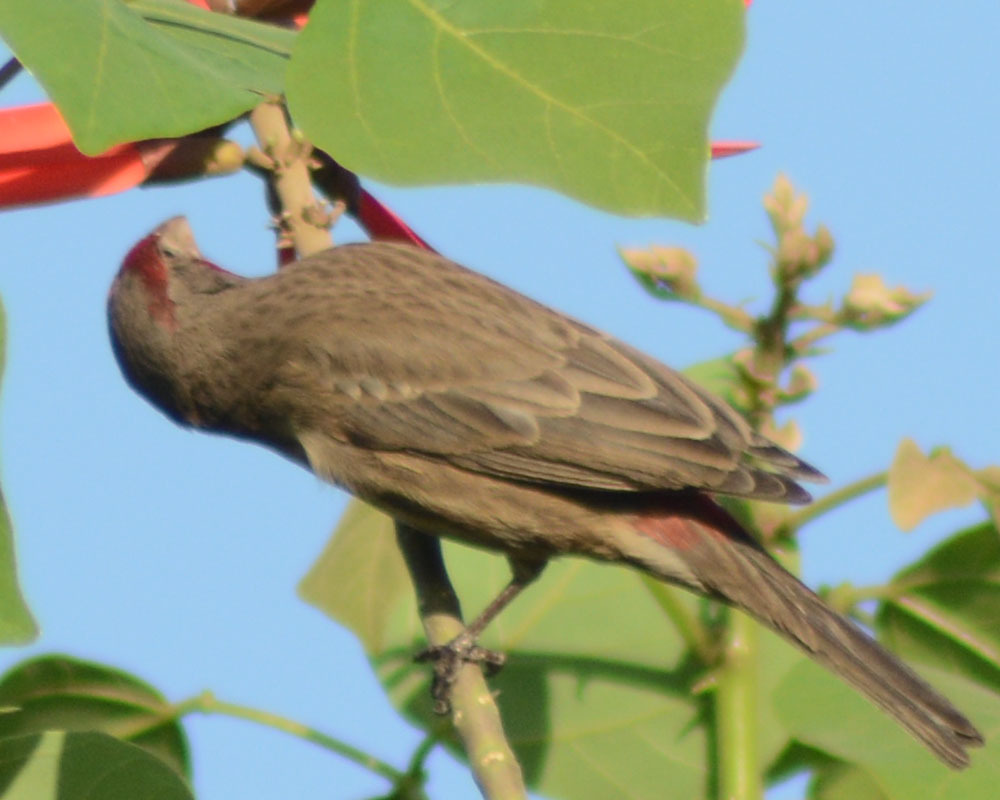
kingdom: Animalia
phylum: Chordata
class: Aves
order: Passeriformes
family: Fringillidae
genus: Haemorhous
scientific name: Haemorhous mexicanus
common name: House finch
